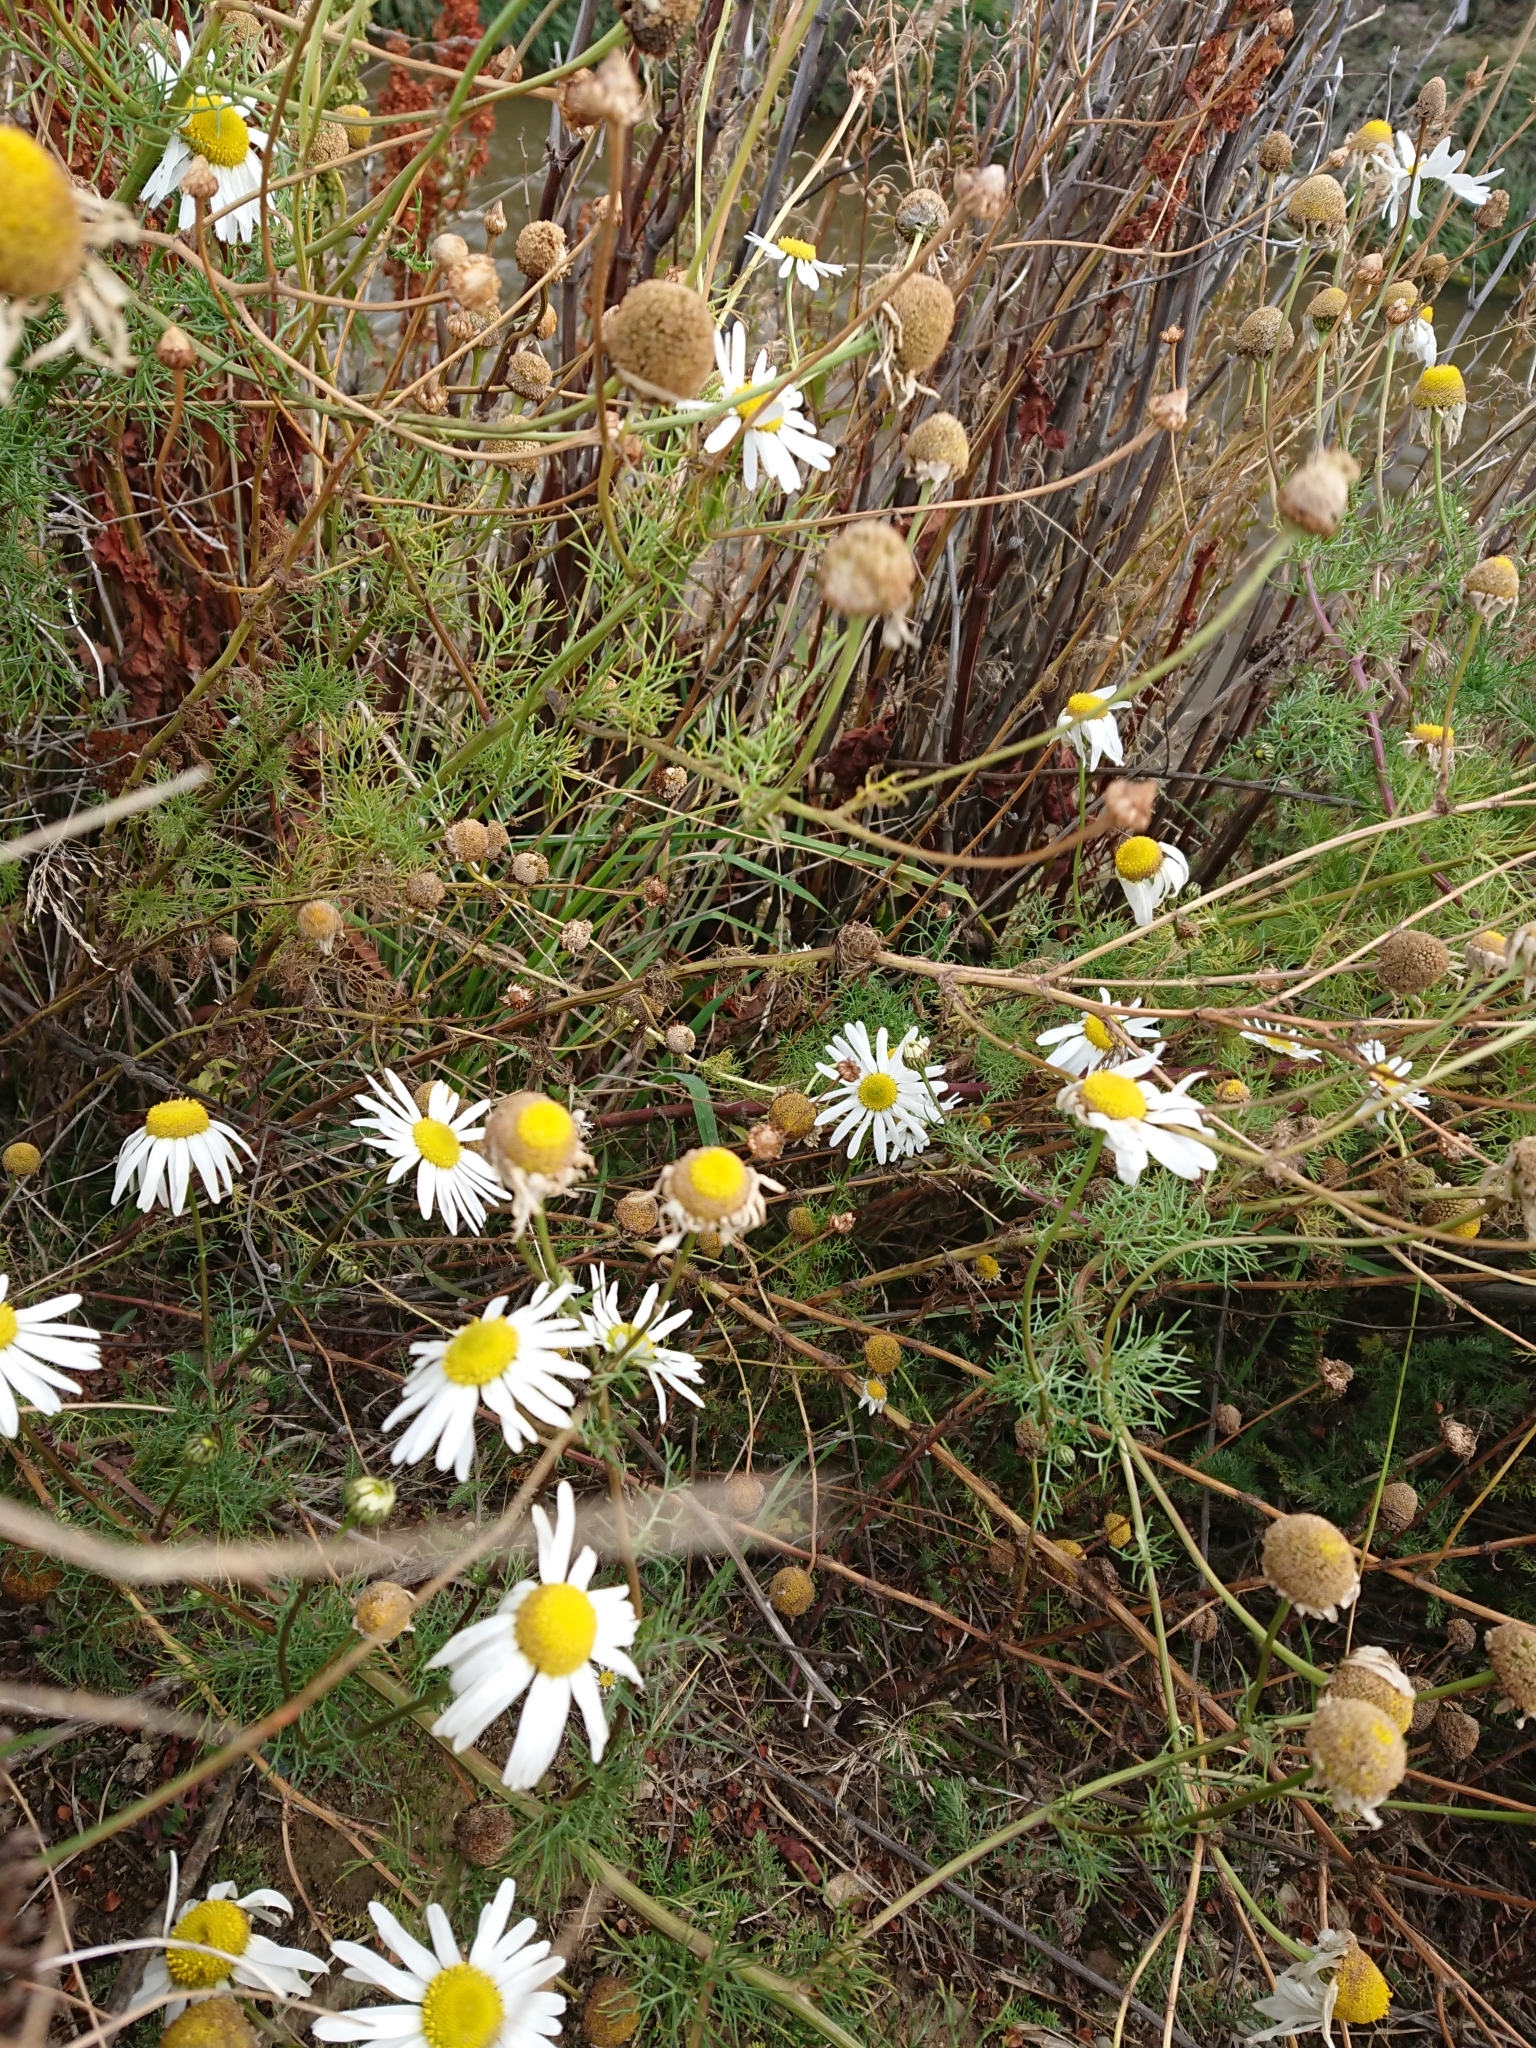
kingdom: Plantae
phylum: Tracheophyta
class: Magnoliopsida
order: Asterales
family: Asteraceae
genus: Tripleurospermum
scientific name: Tripleurospermum inodorum
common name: Scentless mayweed
